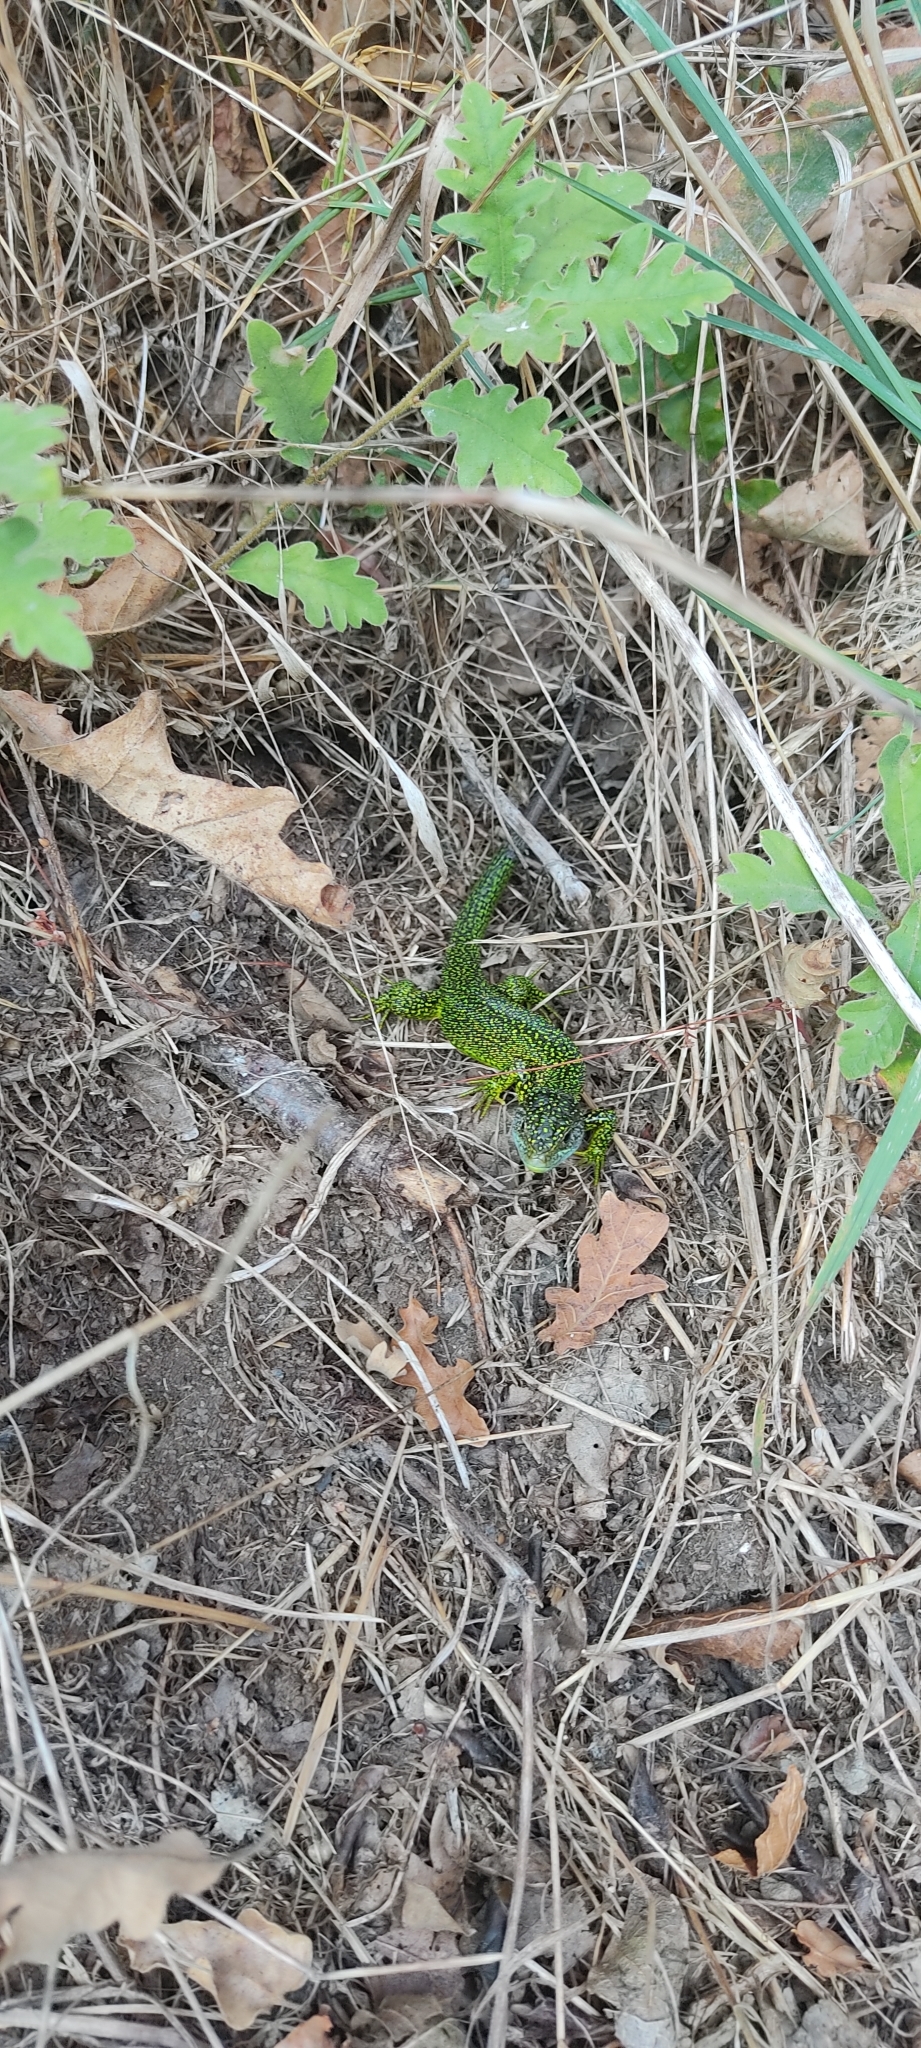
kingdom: Animalia
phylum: Chordata
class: Squamata
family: Lacertidae
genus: Lacerta
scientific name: Lacerta bilineata
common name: Western green lizard
